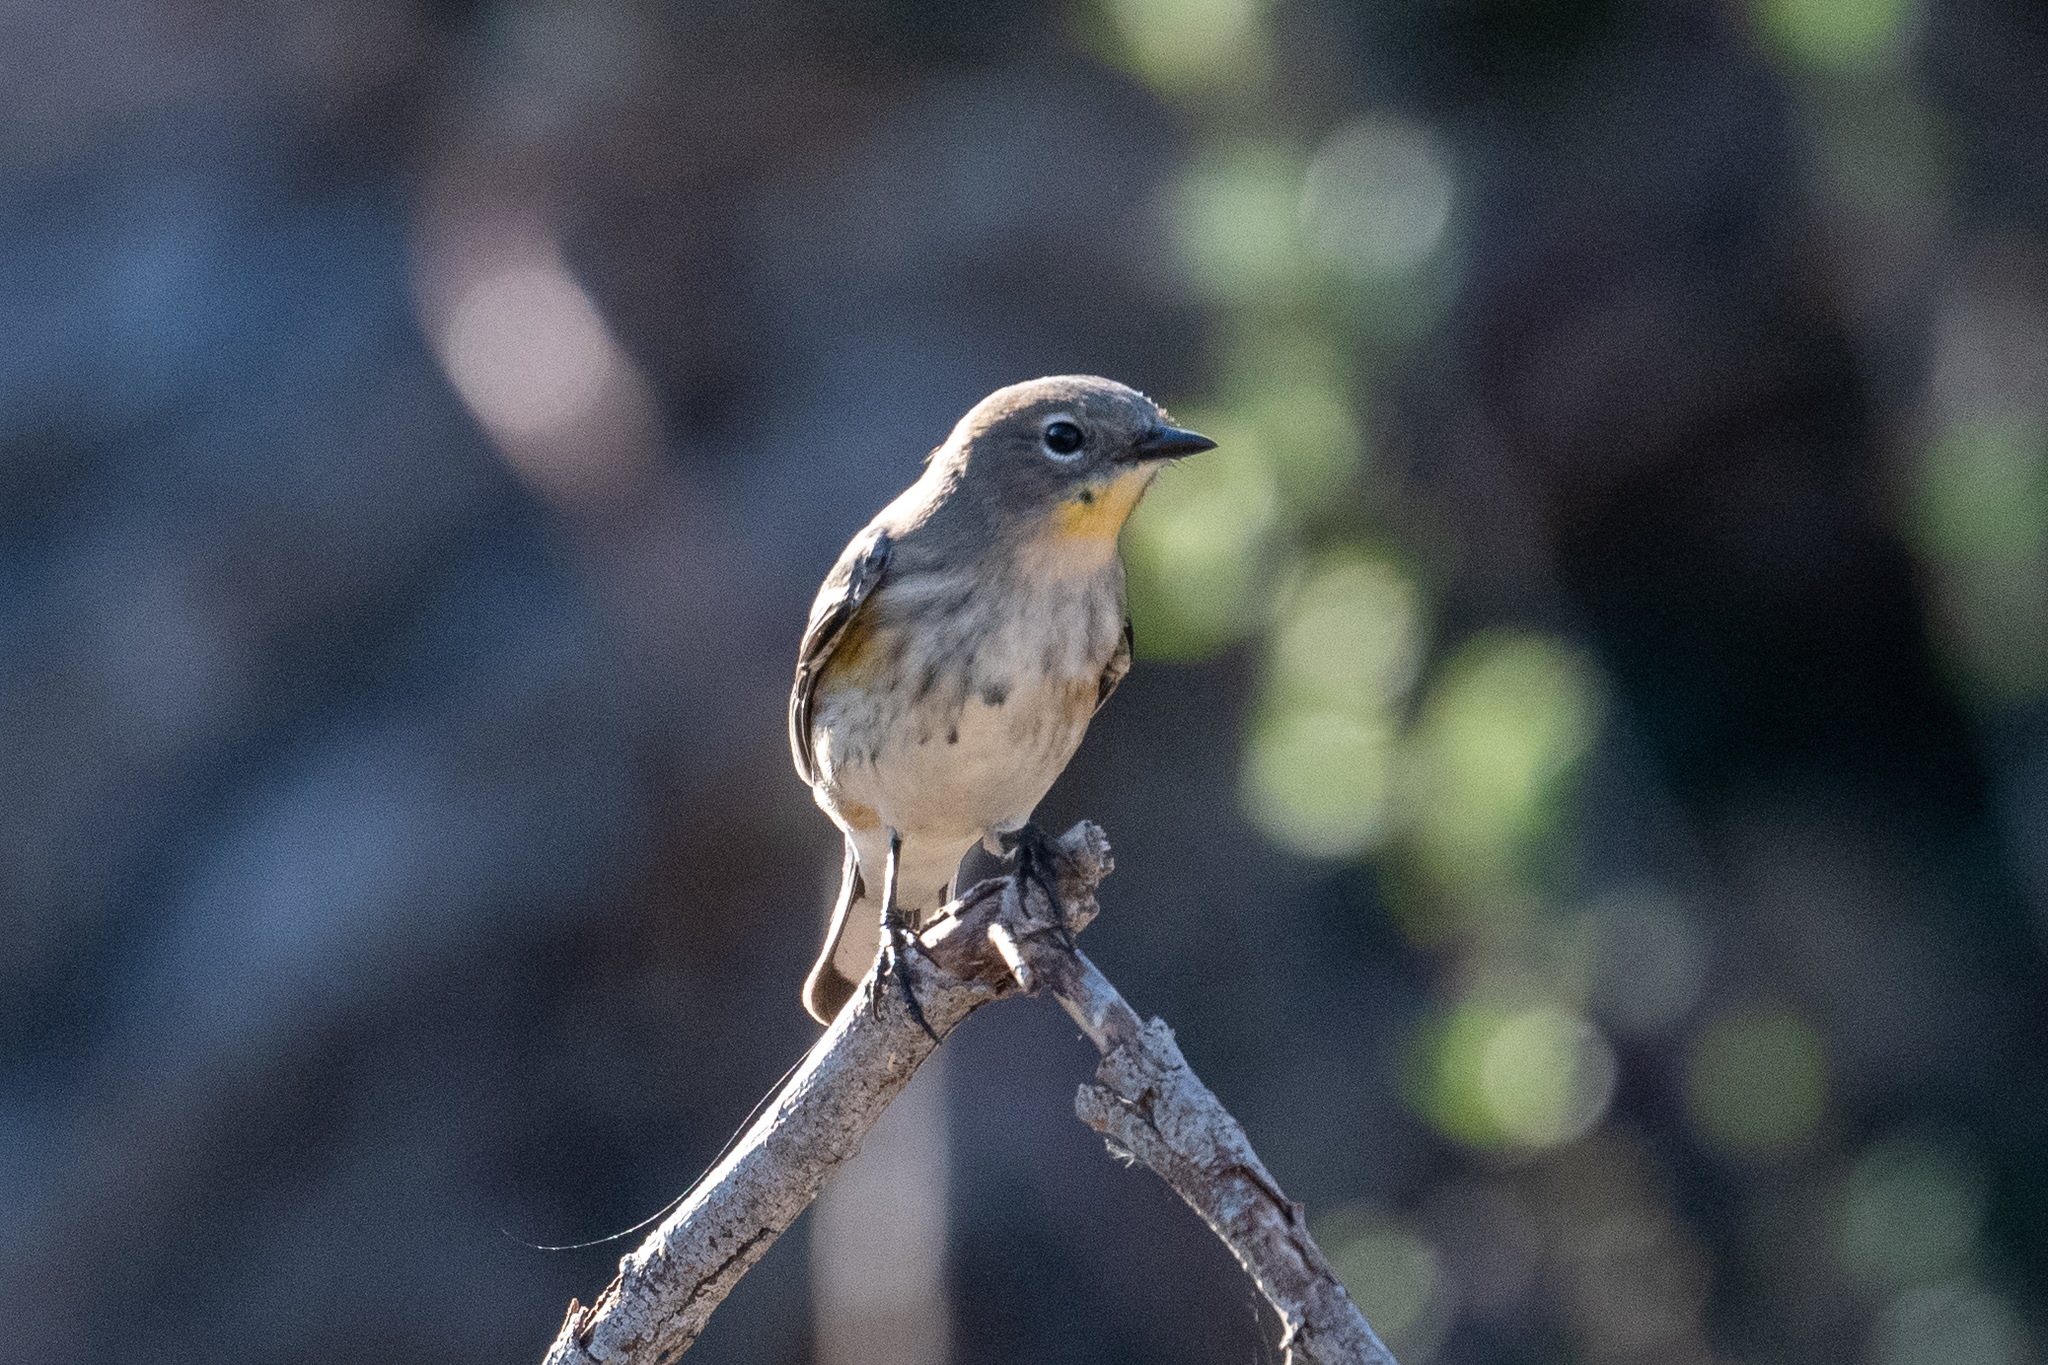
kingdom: Animalia
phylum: Chordata
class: Aves
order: Passeriformes
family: Parulidae
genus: Setophaga
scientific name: Setophaga coronata
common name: Myrtle warbler
